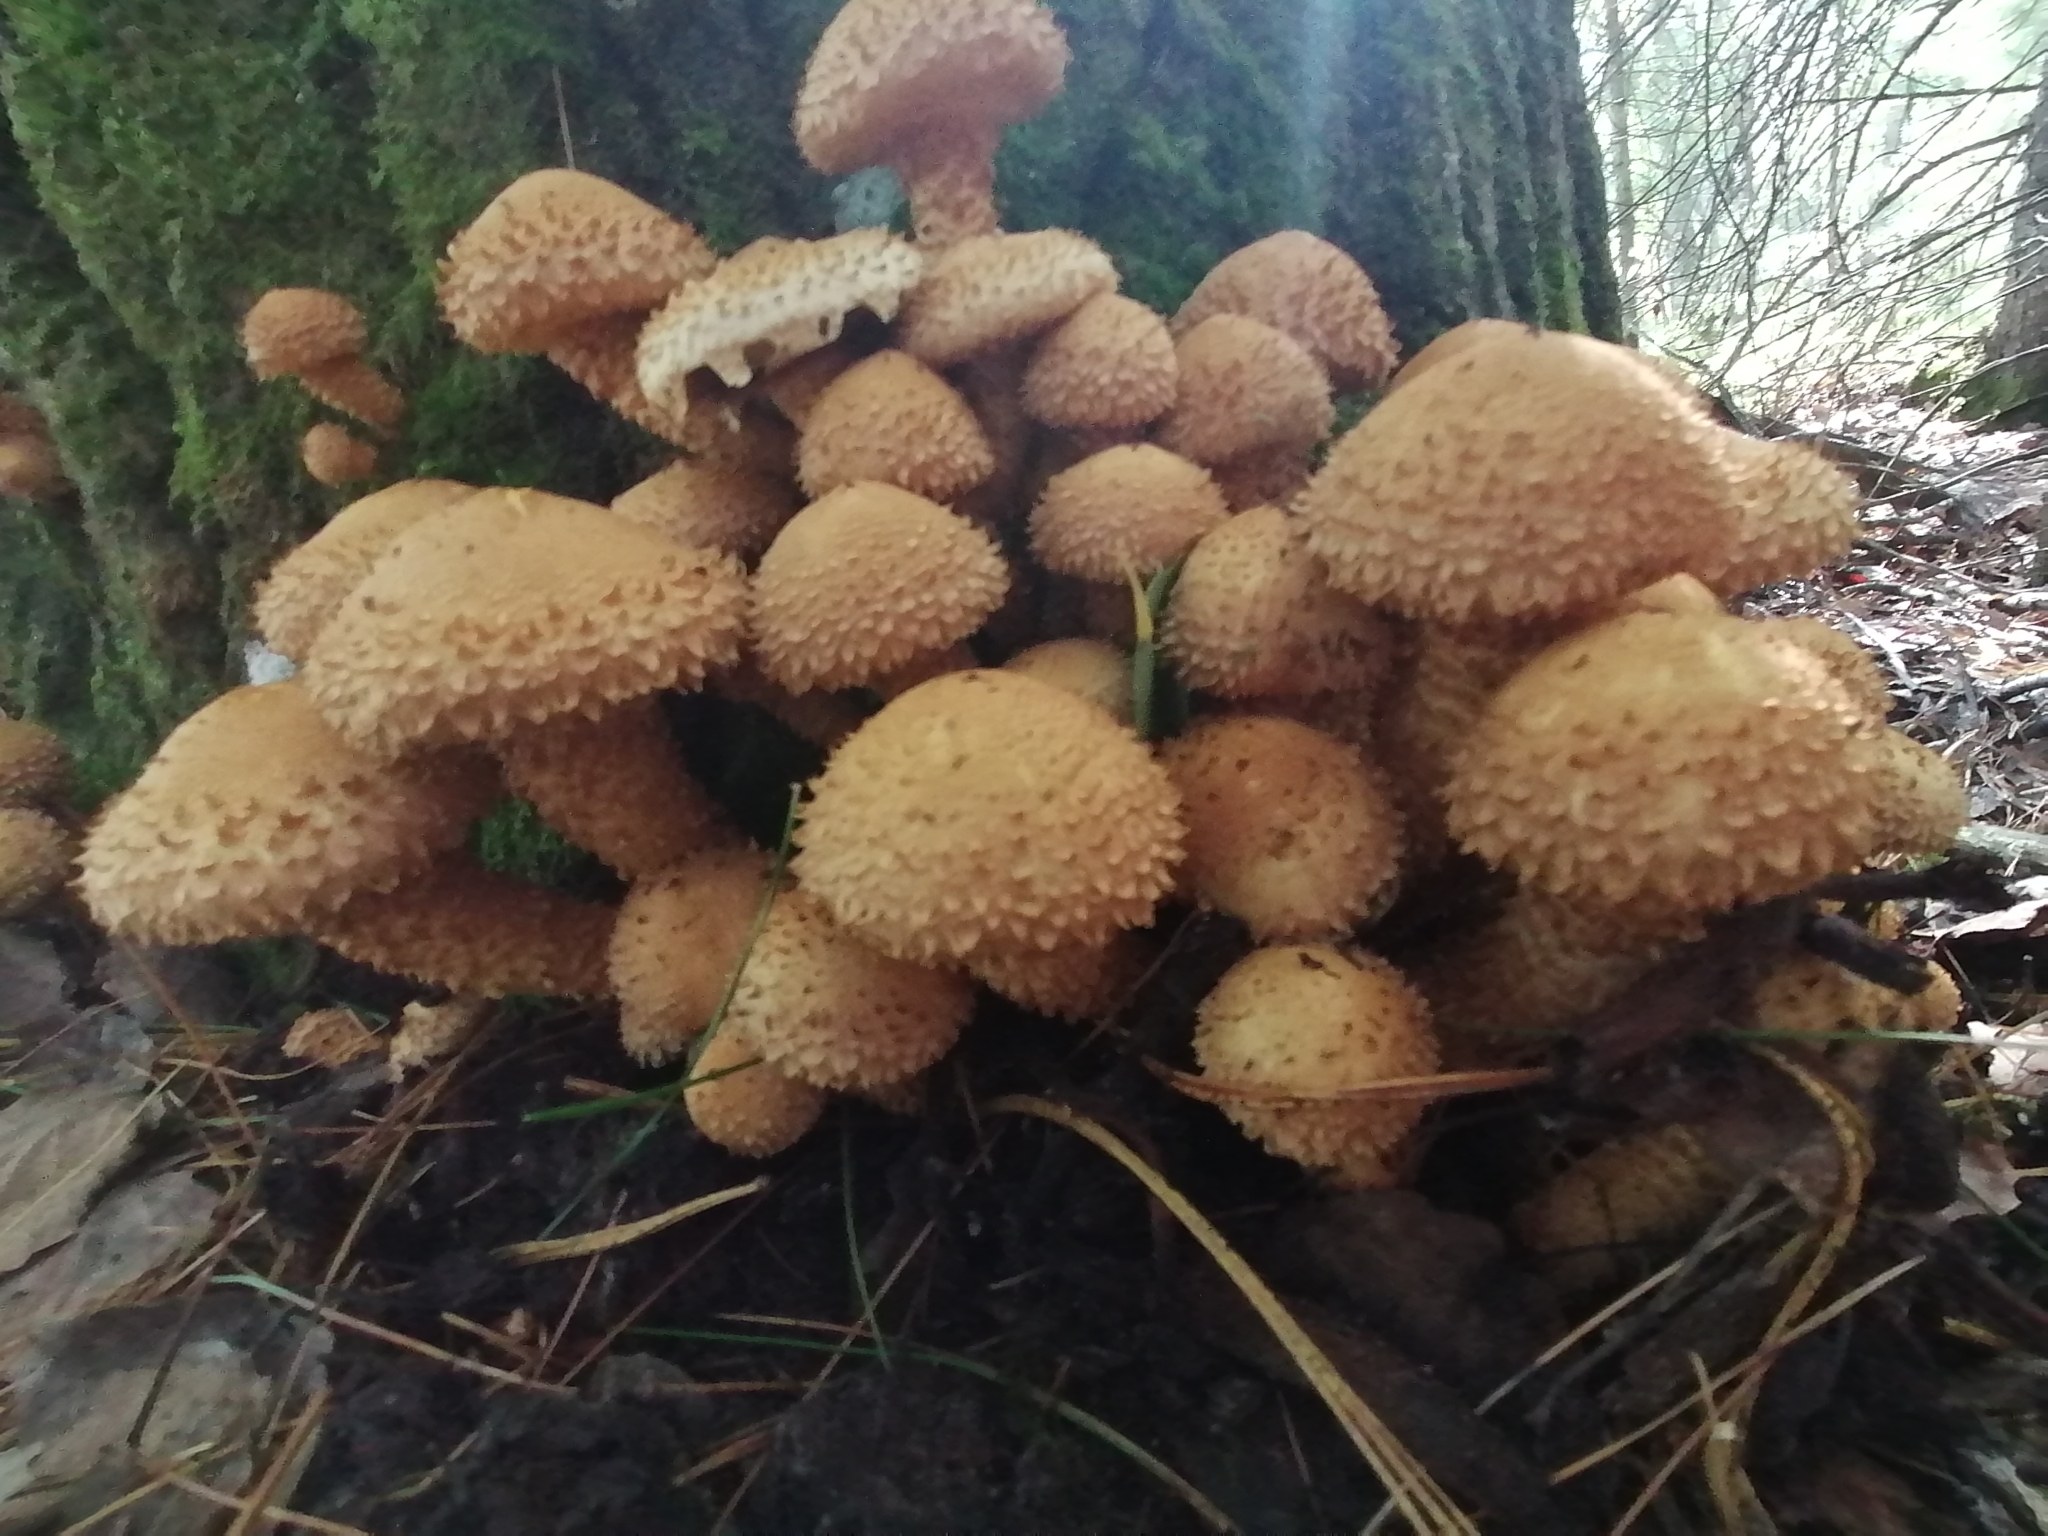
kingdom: Fungi
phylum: Basidiomycota
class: Agaricomycetes
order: Agaricales
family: Strophariaceae
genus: Pholiota
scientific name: Pholiota squarrosa
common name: Shaggy pholiota
